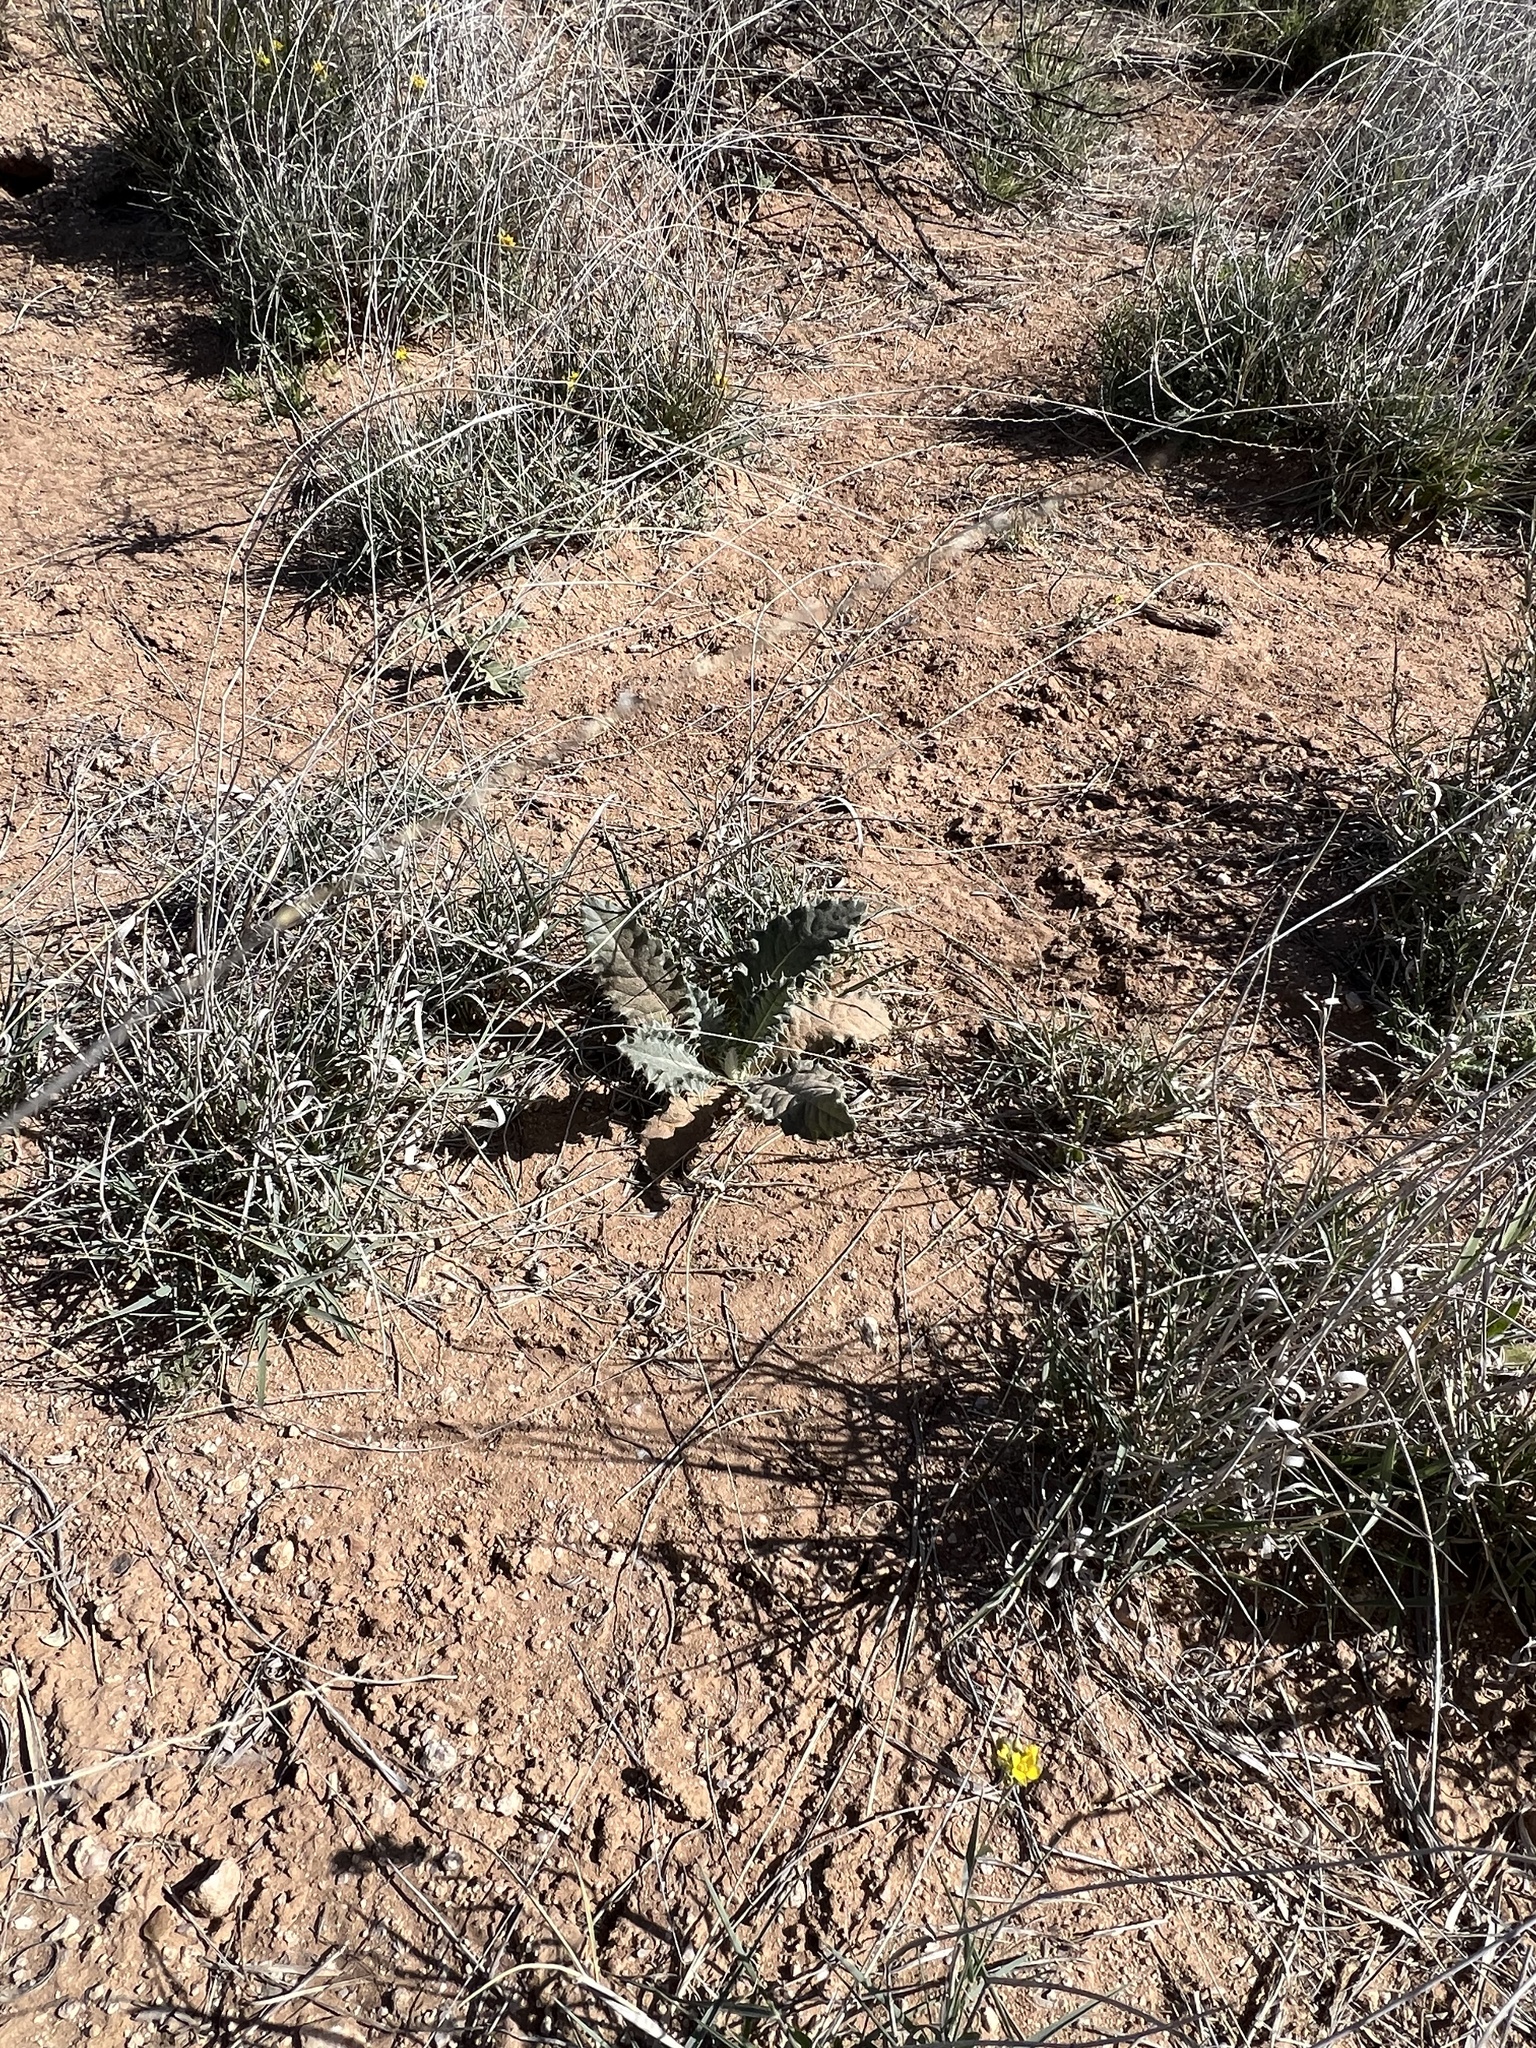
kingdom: Plantae
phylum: Tracheophyta
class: Magnoliopsida
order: Asterales
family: Asteraceae
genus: Cirsium
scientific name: Cirsium neomexicanum
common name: New mexico thistle
